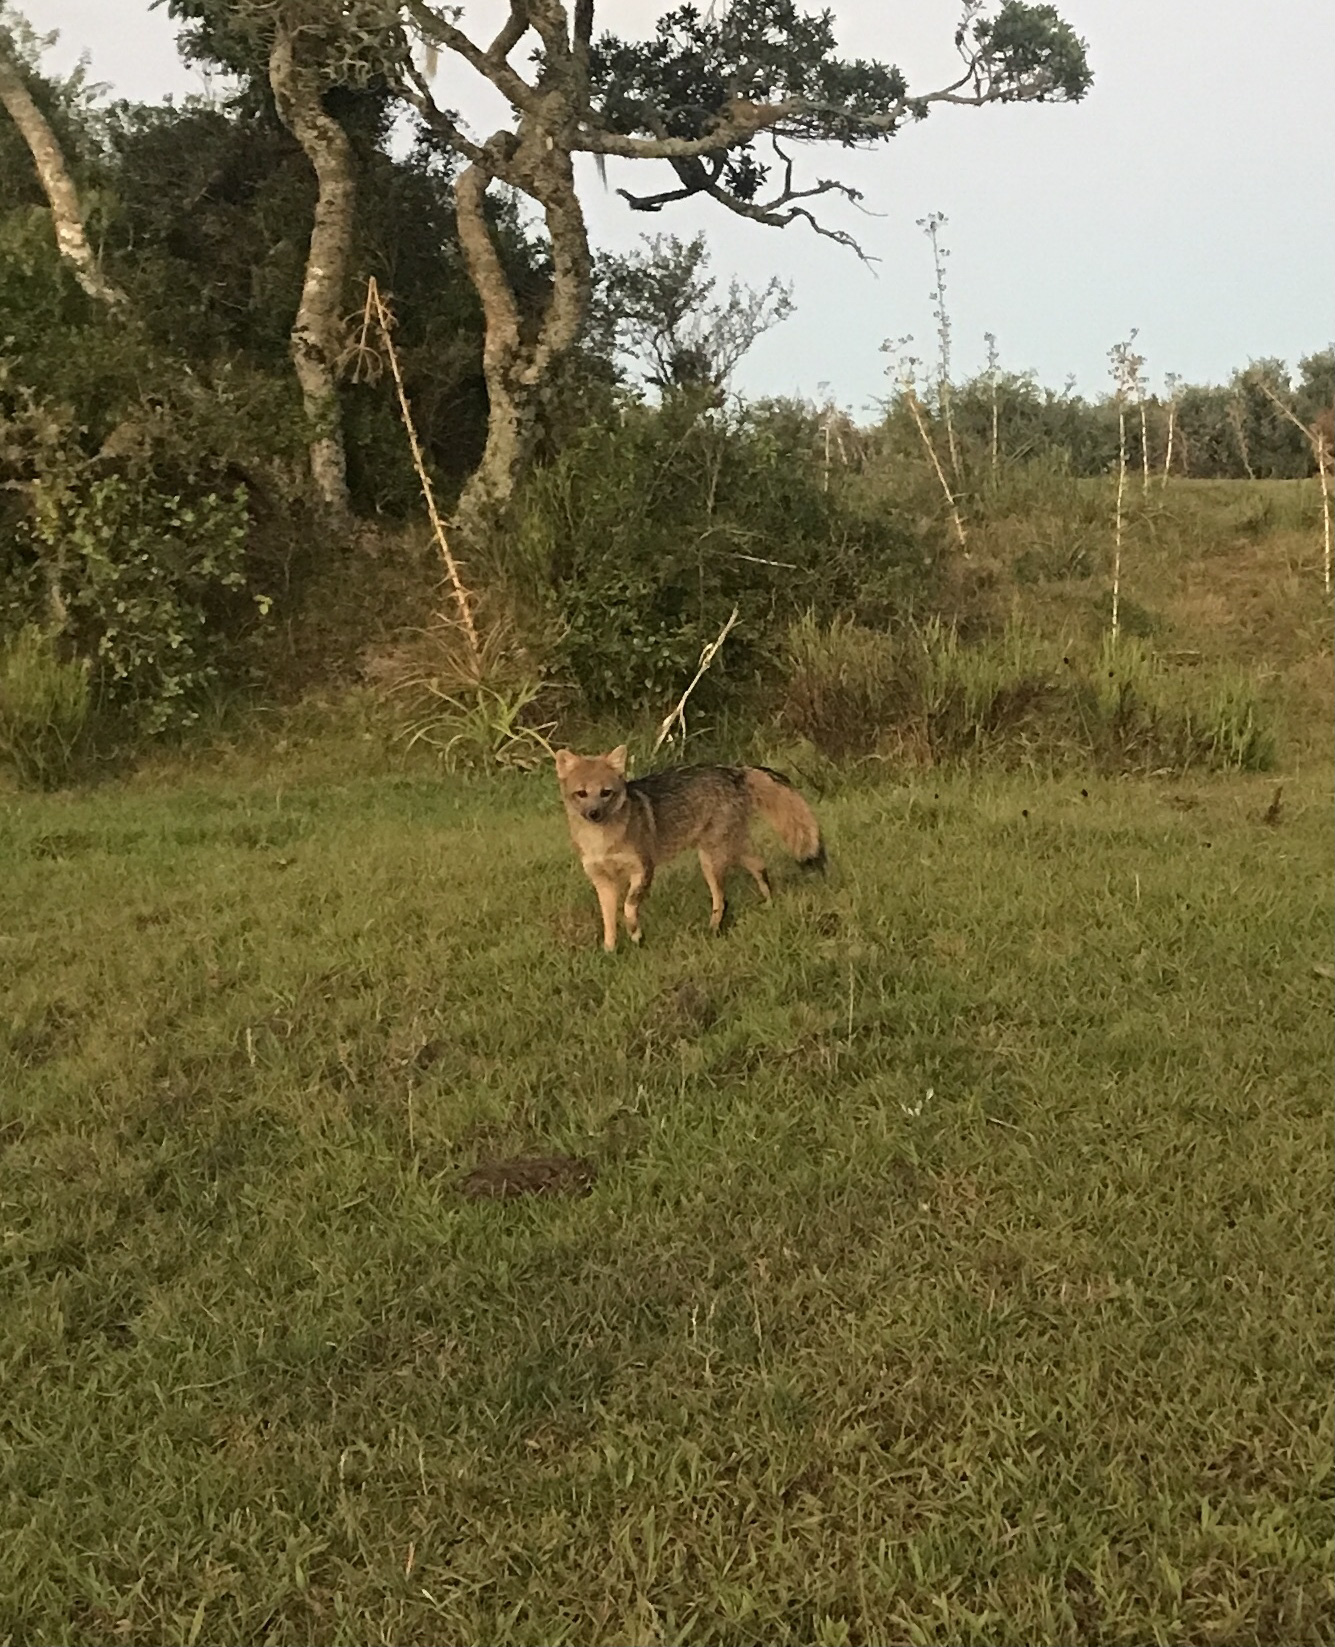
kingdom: Animalia
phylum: Chordata
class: Mammalia
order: Carnivora
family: Canidae
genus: Cerdocyon
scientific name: Cerdocyon thous
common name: Crab-eating fox
